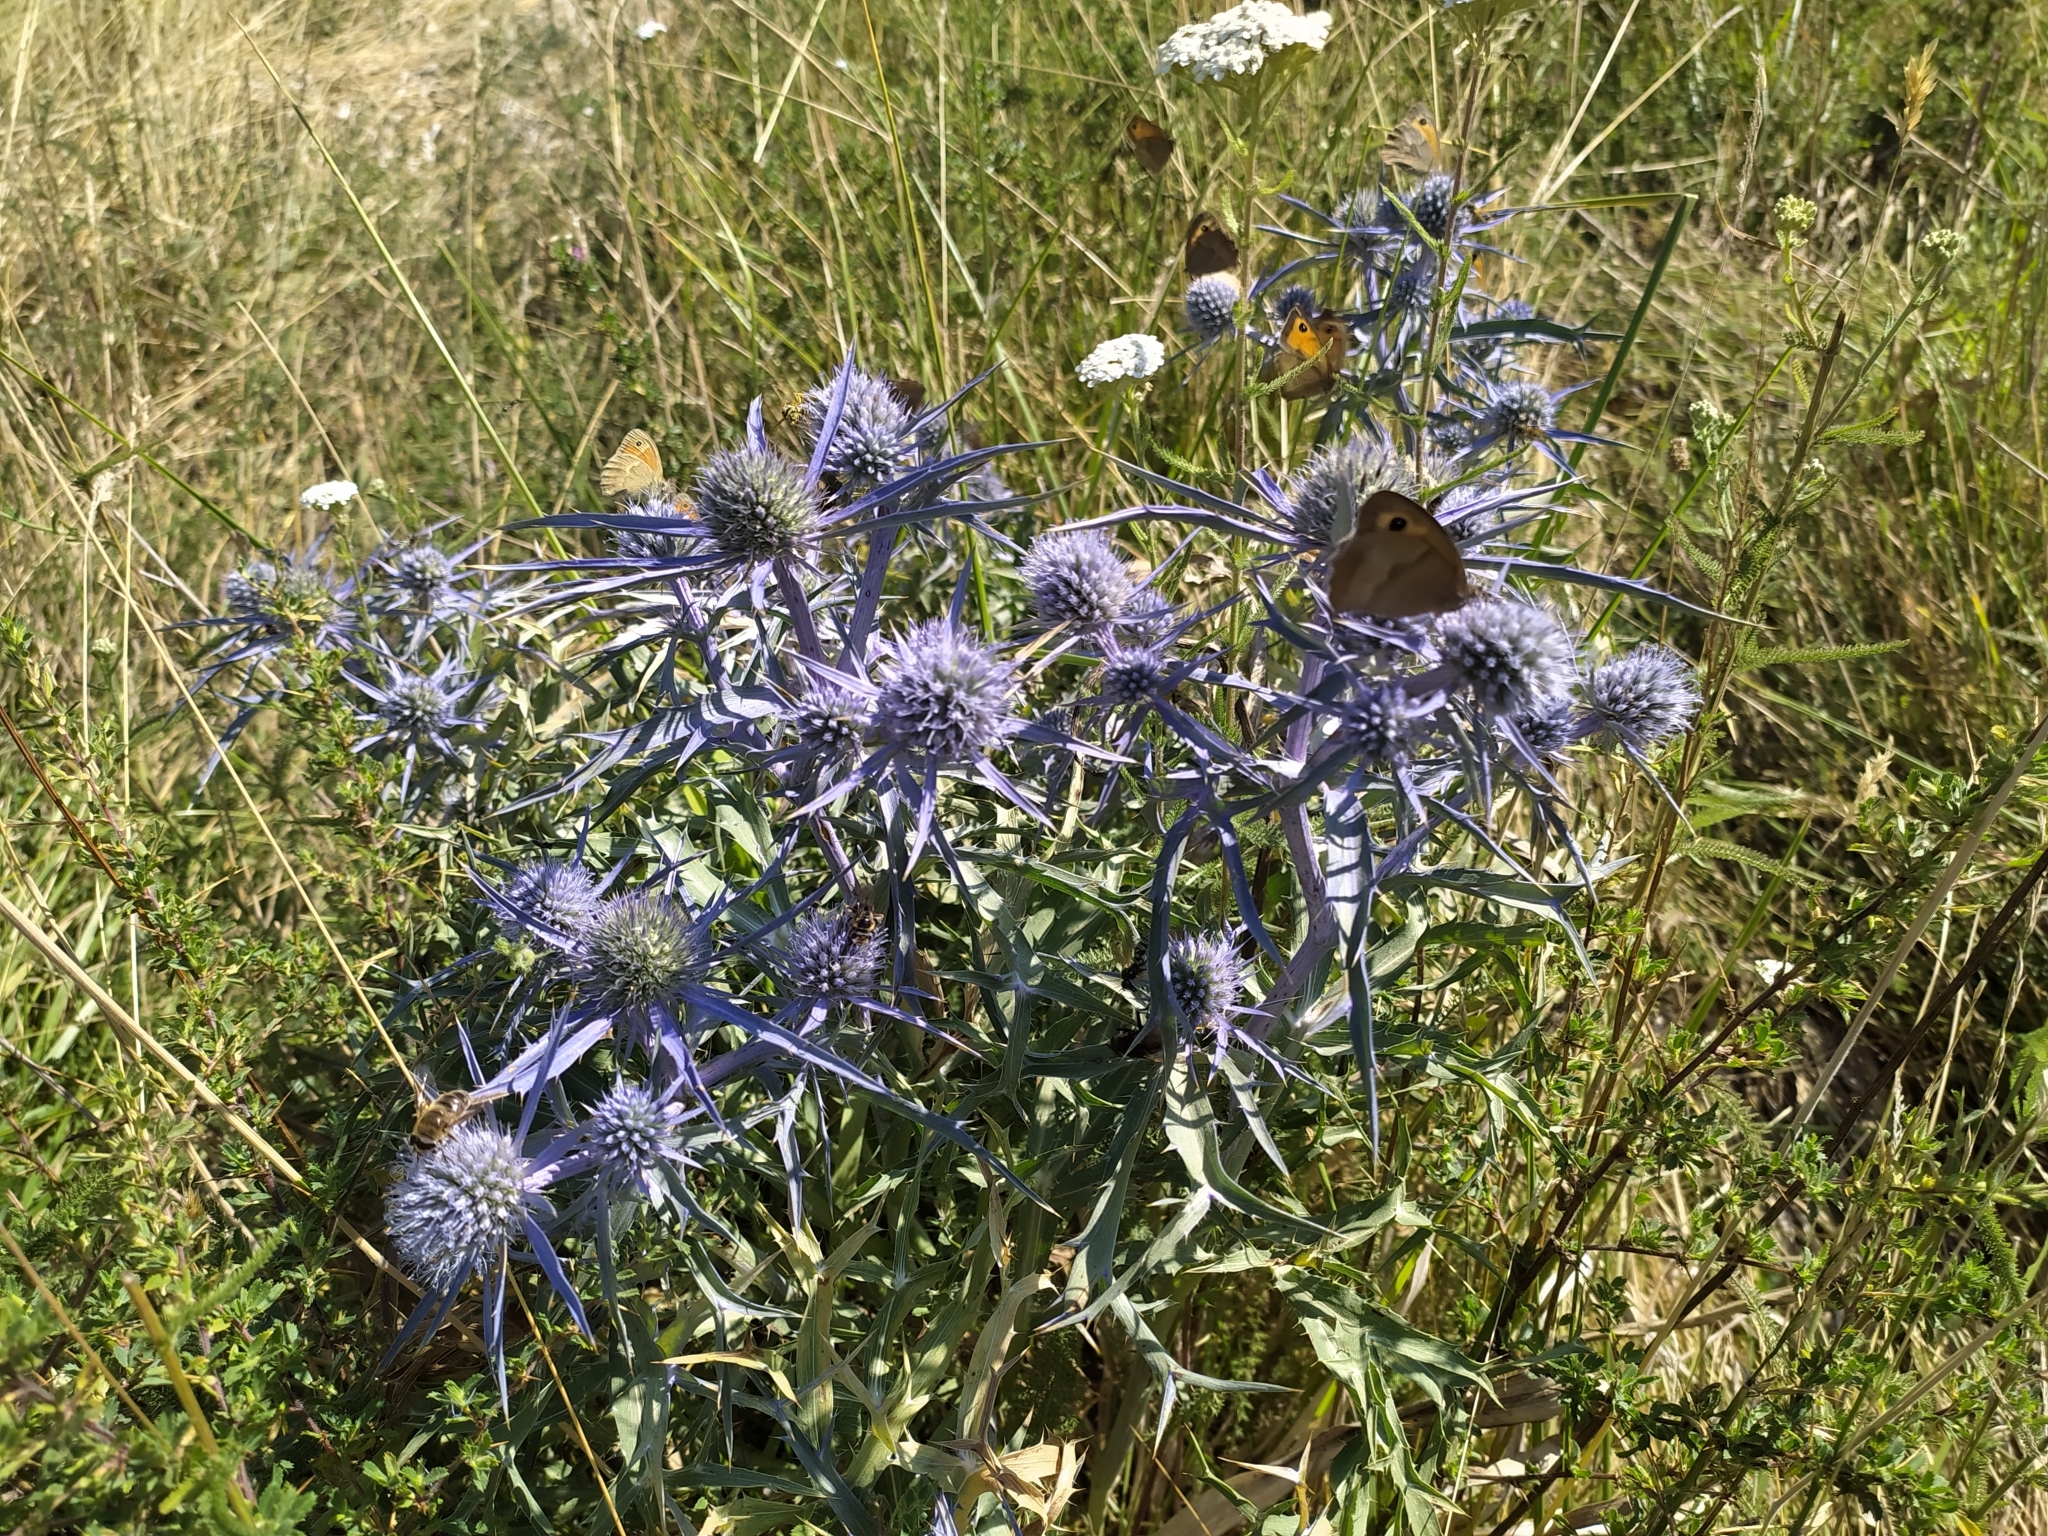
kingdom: Plantae
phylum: Tracheophyta
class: Magnoliopsida
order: Apiales
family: Apiaceae
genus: Eryngium
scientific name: Eryngium amethystinum
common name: Amethyst eryngo
